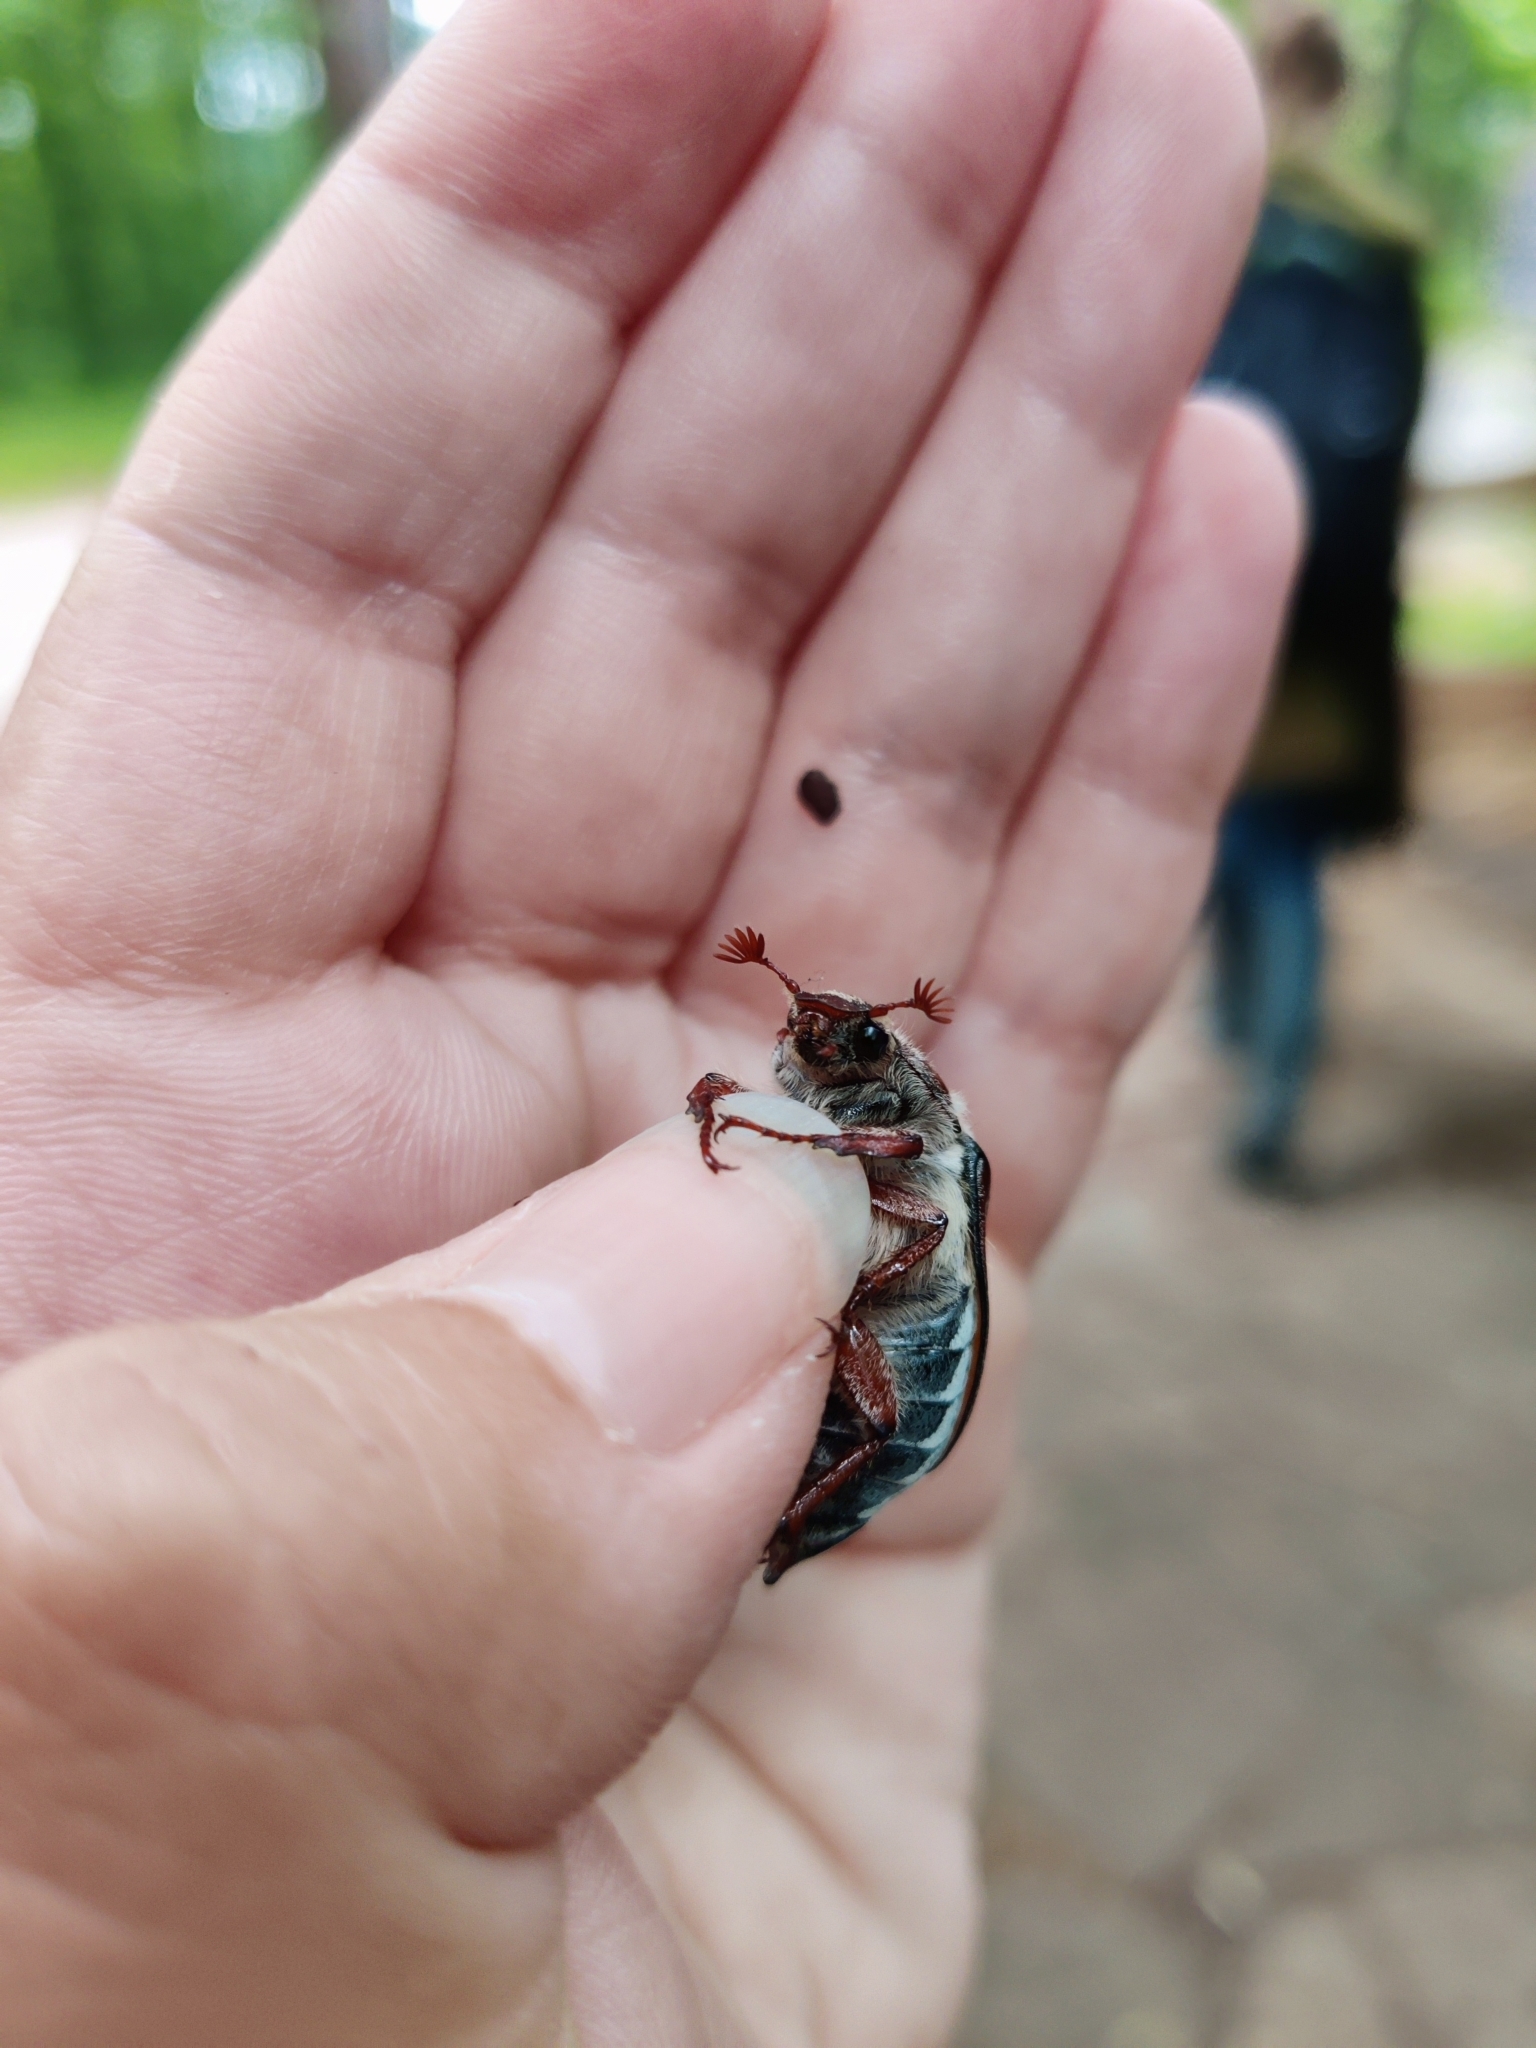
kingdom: Animalia
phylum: Arthropoda
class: Insecta
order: Coleoptera
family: Scarabaeidae
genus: Melolontha
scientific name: Melolontha hippocastani
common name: Chestnut cockchafer
